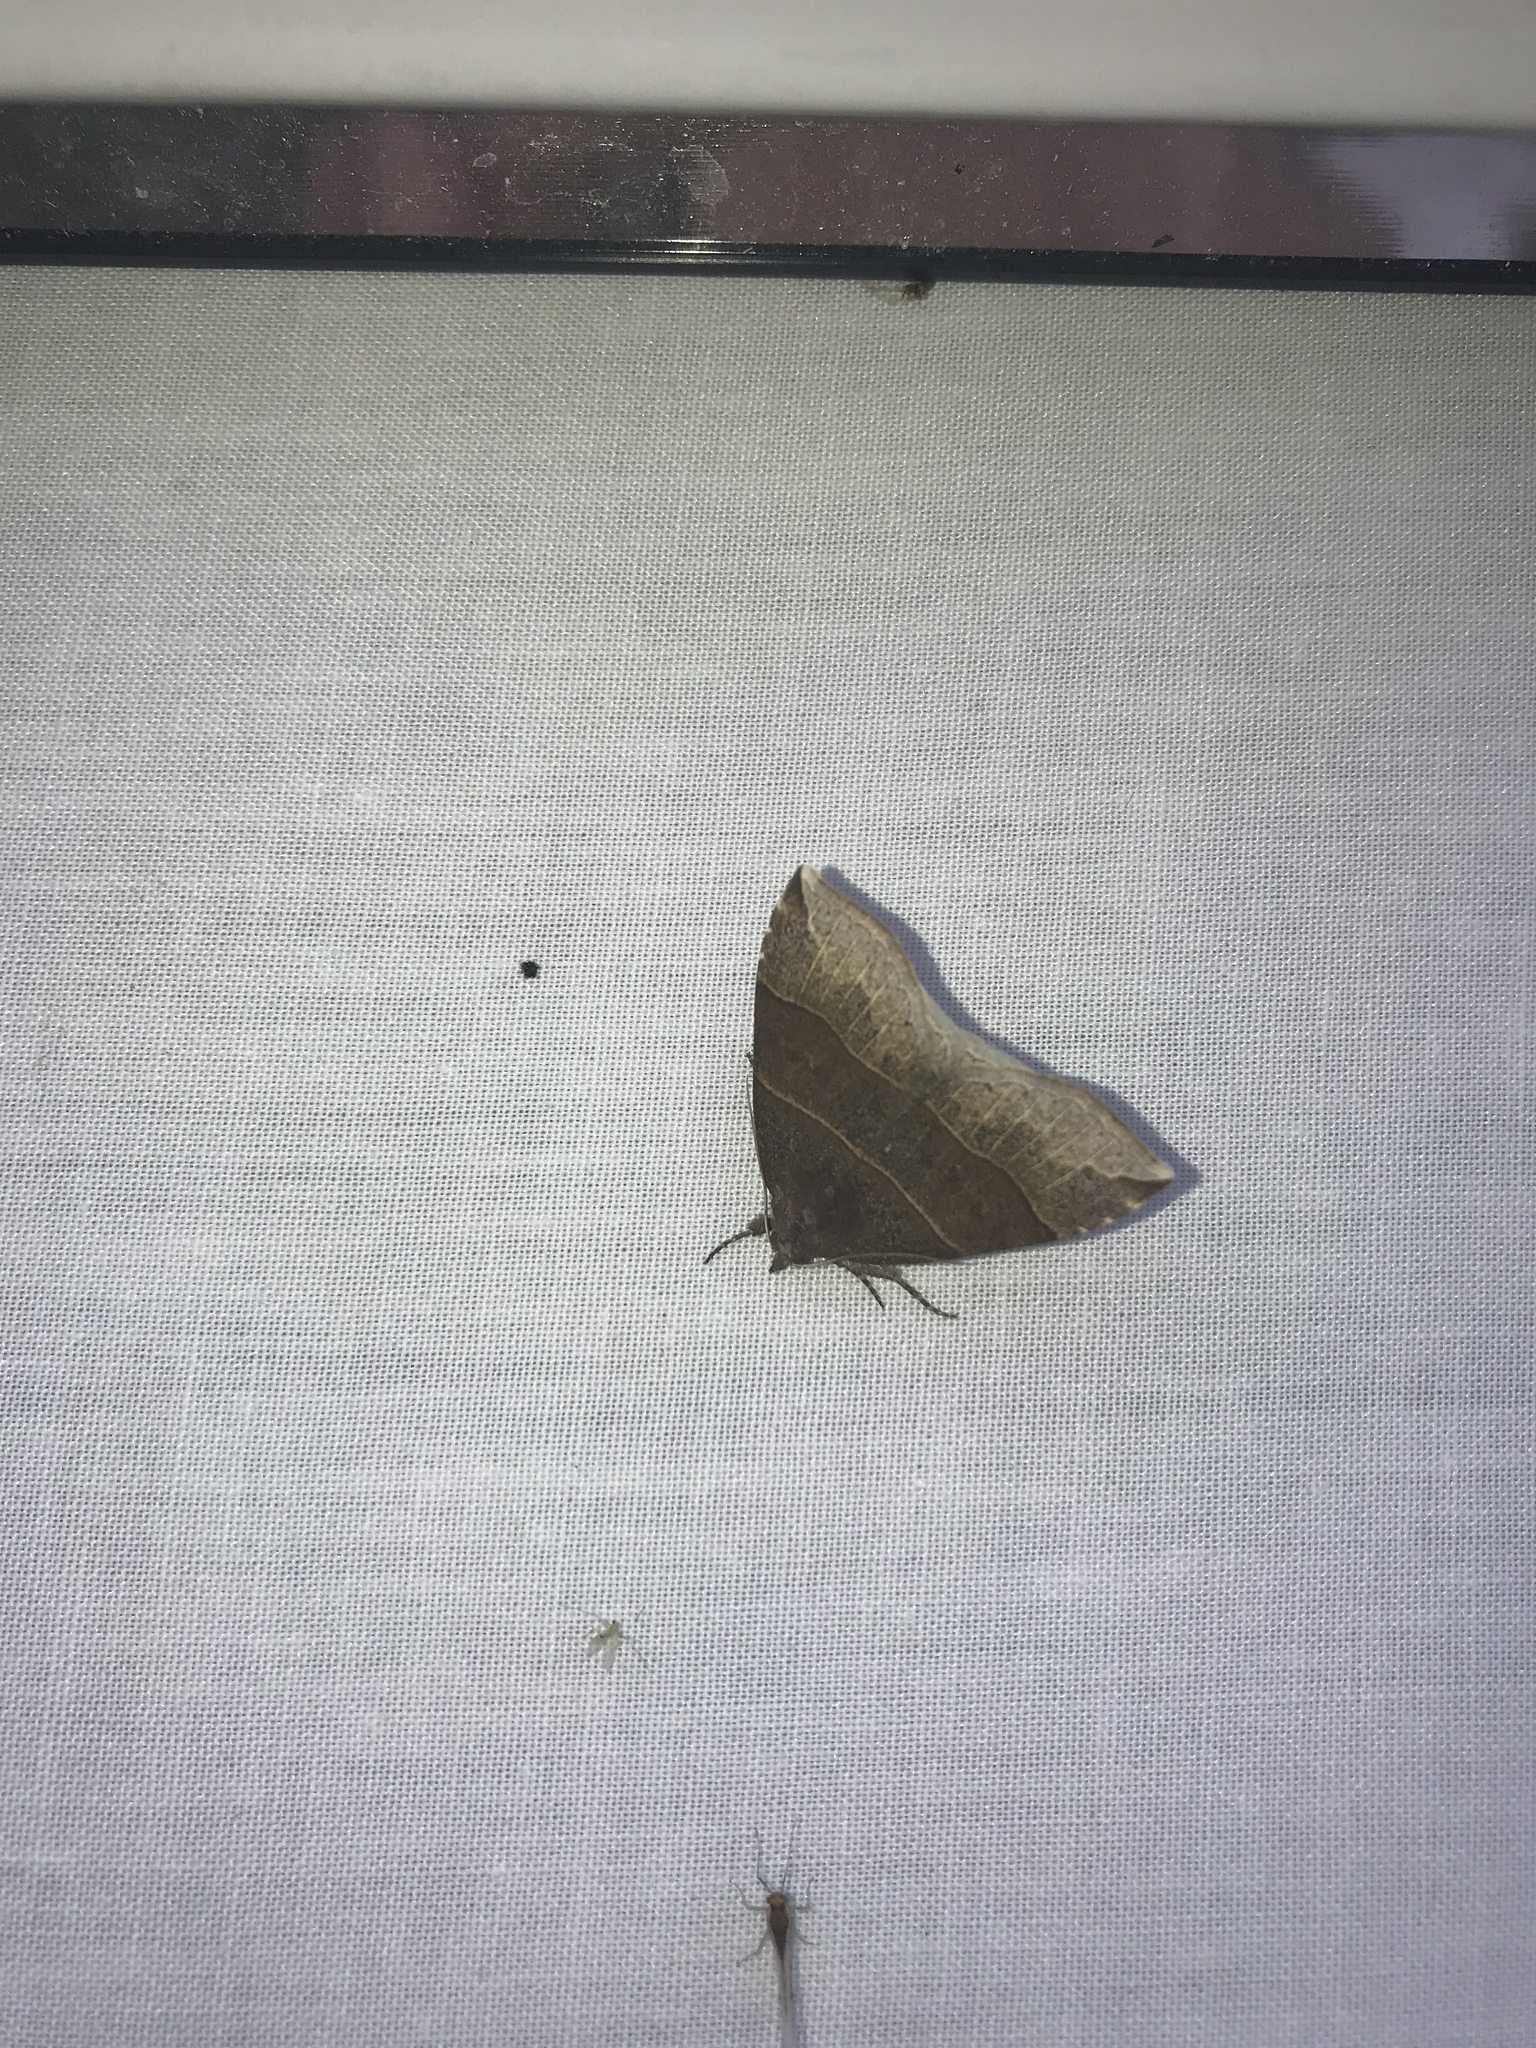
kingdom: Animalia
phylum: Arthropoda
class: Insecta
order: Lepidoptera
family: Erebidae
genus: Parallelia
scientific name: Parallelia bistriaris
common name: Maple looper moth
